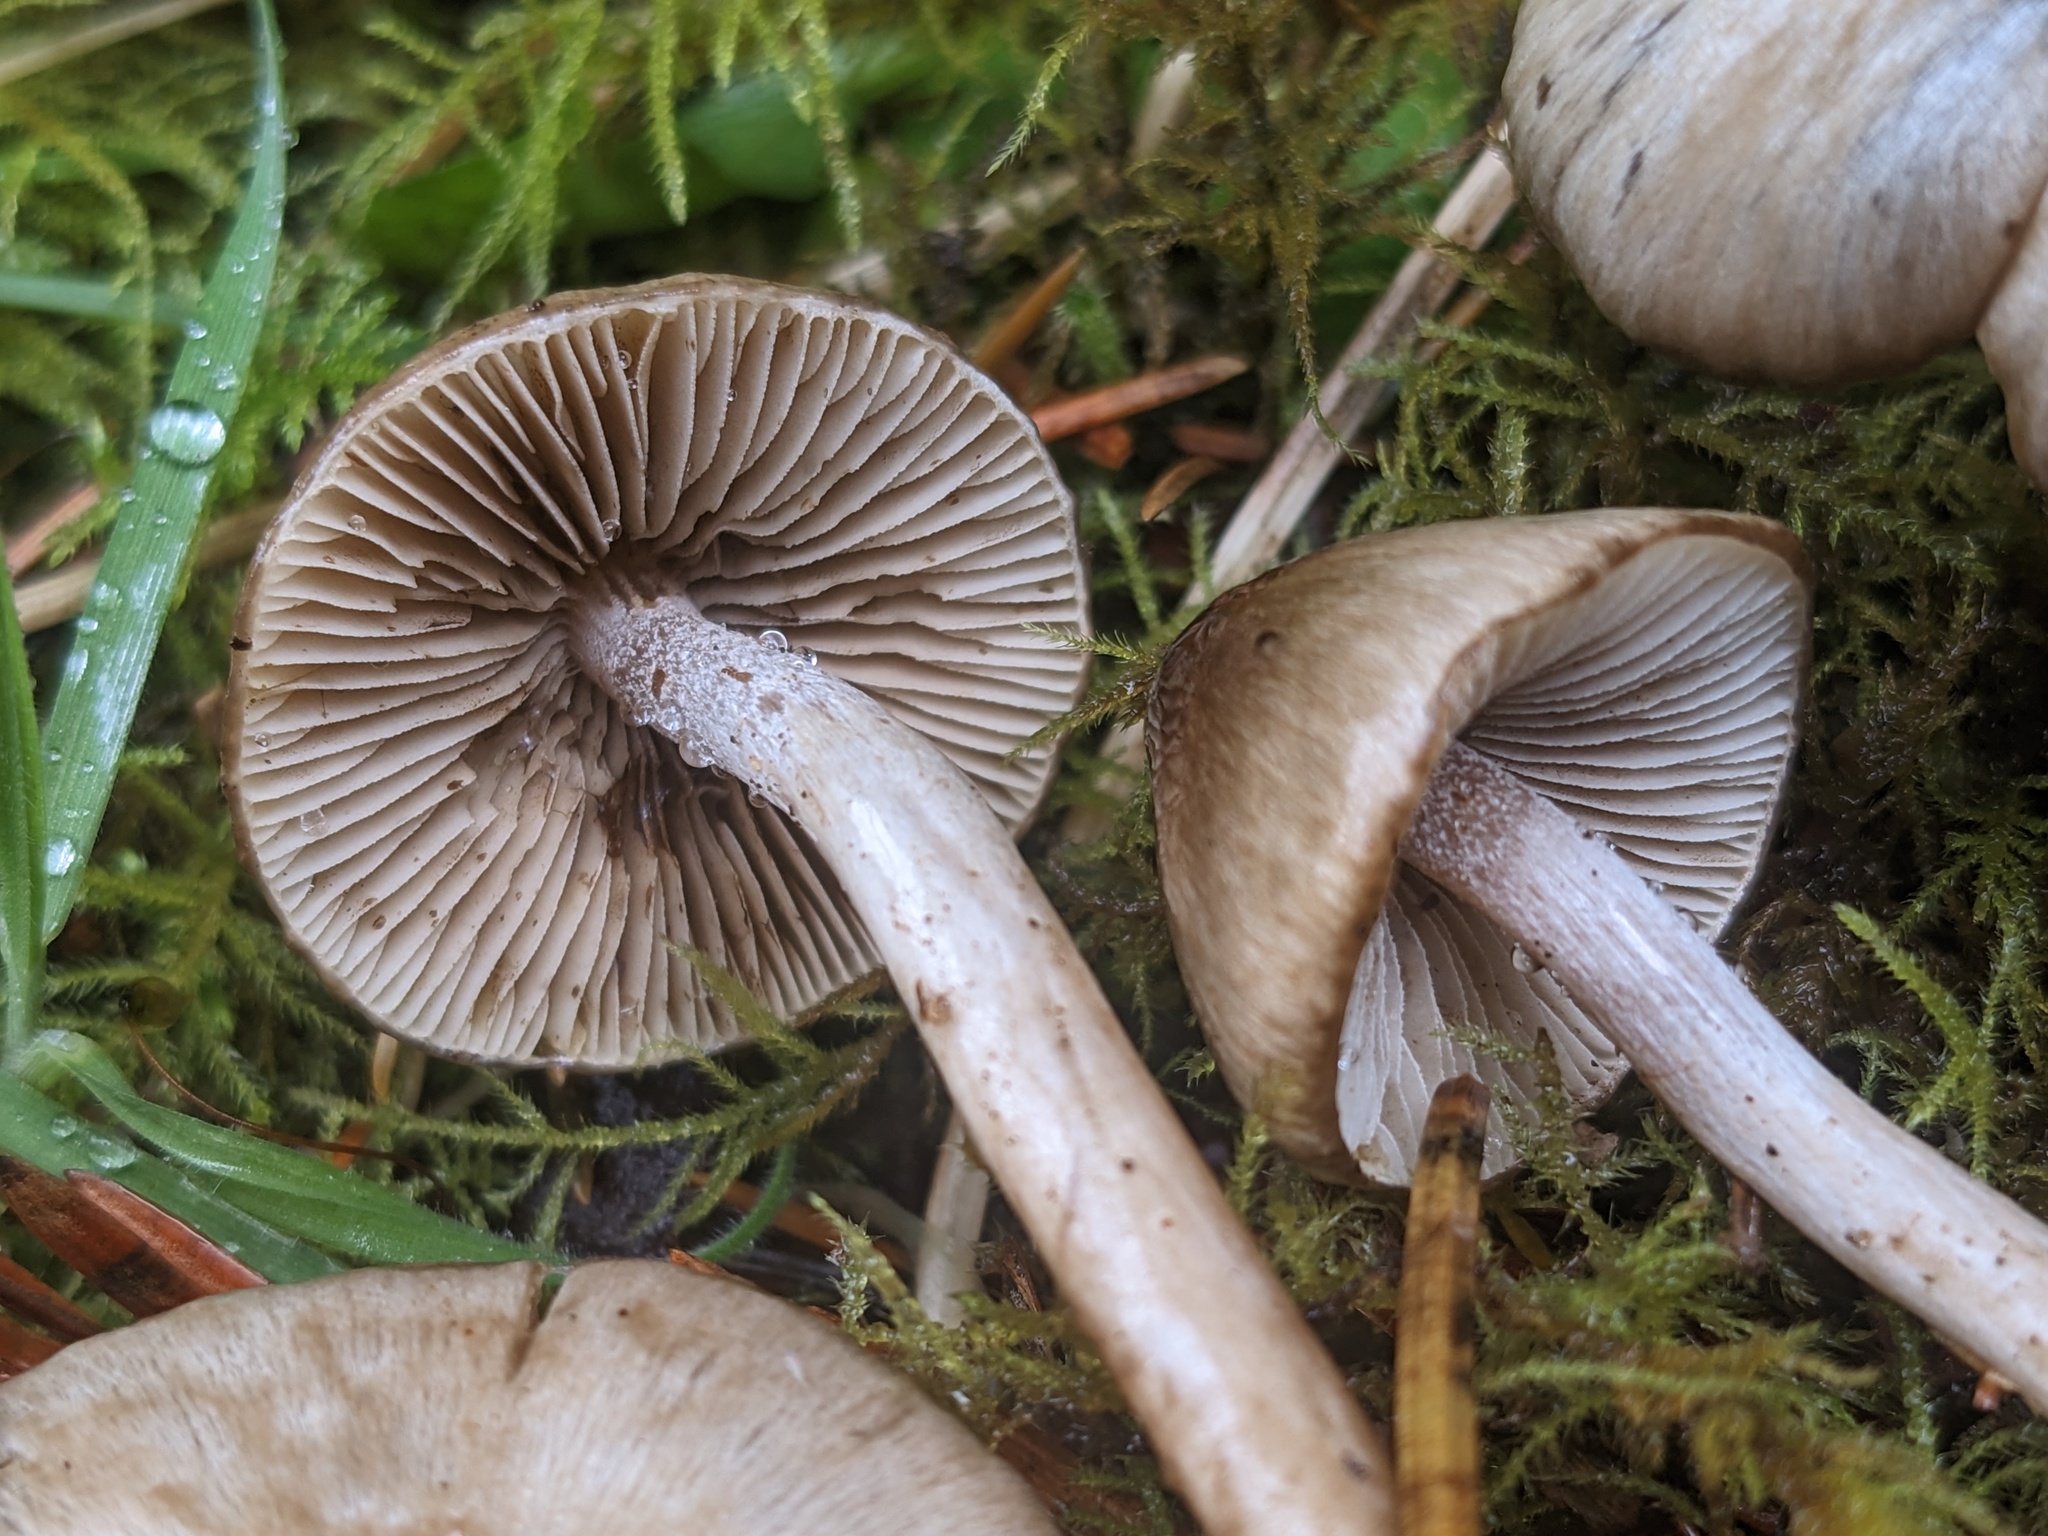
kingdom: Fungi
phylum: Basidiomycota
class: Agaricomycetes
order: Agaricales
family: Inocybaceae
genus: Inocybe
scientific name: Inocybe fuscodisca
